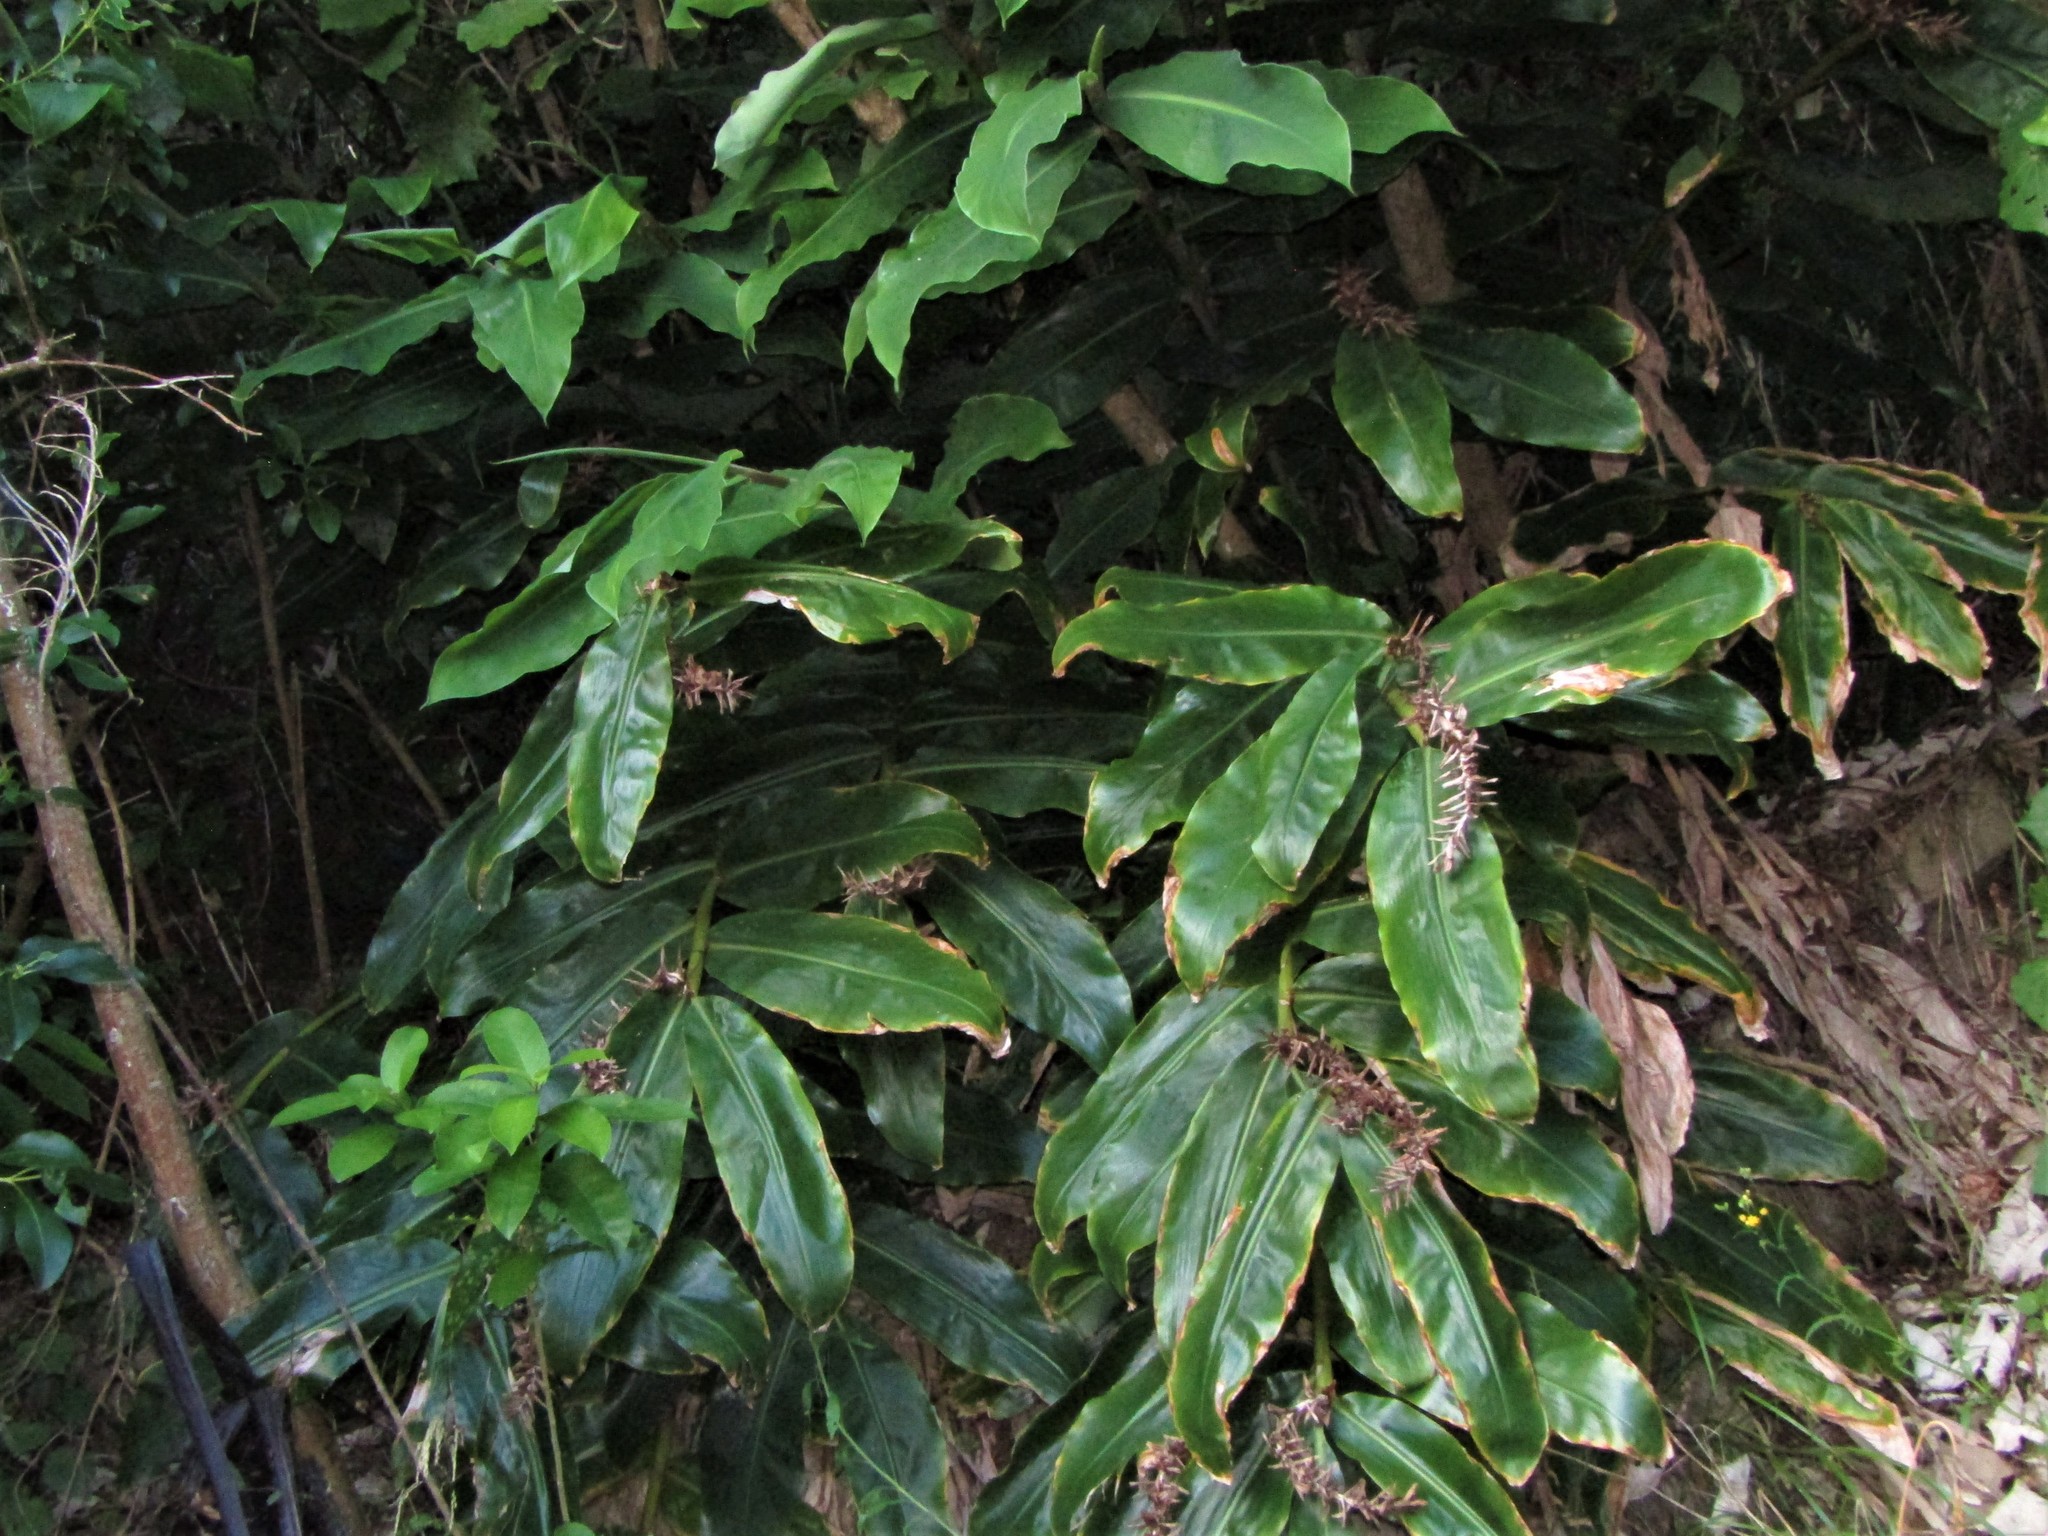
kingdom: Plantae
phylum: Tracheophyta
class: Liliopsida
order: Zingiberales
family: Zingiberaceae
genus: Hedychium
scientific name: Hedychium gardnerianum
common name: Himalayan ginger
